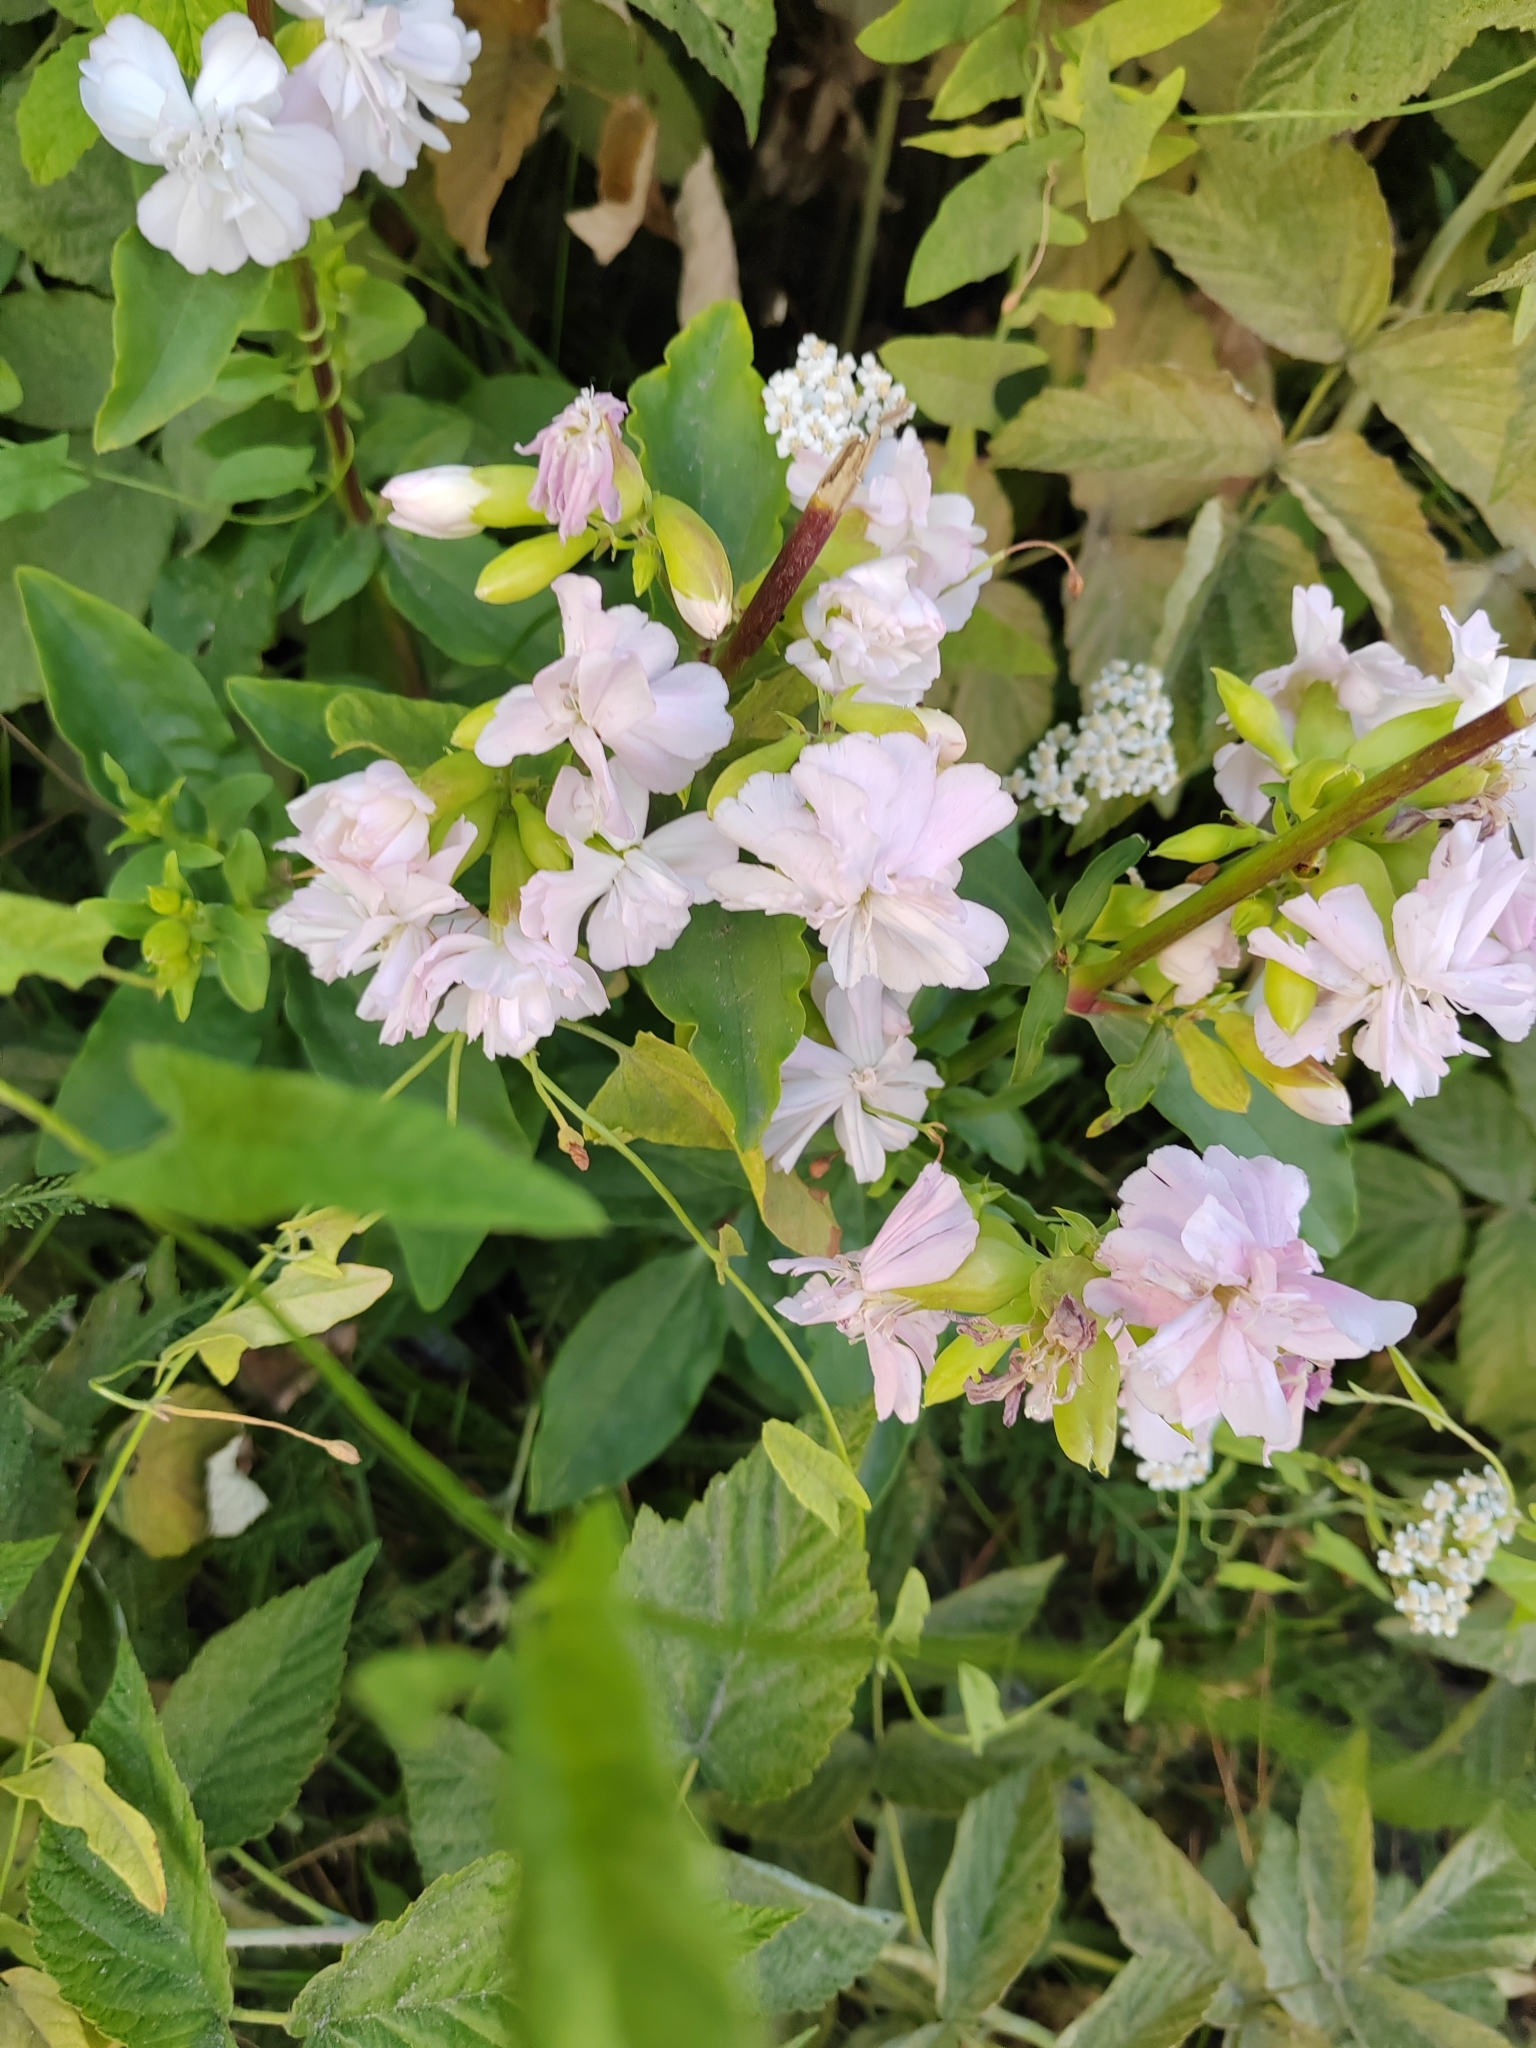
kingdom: Plantae
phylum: Tracheophyta
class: Magnoliopsida
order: Caryophyllales
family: Caryophyllaceae
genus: Saponaria
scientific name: Saponaria officinalis
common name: Soapwort
